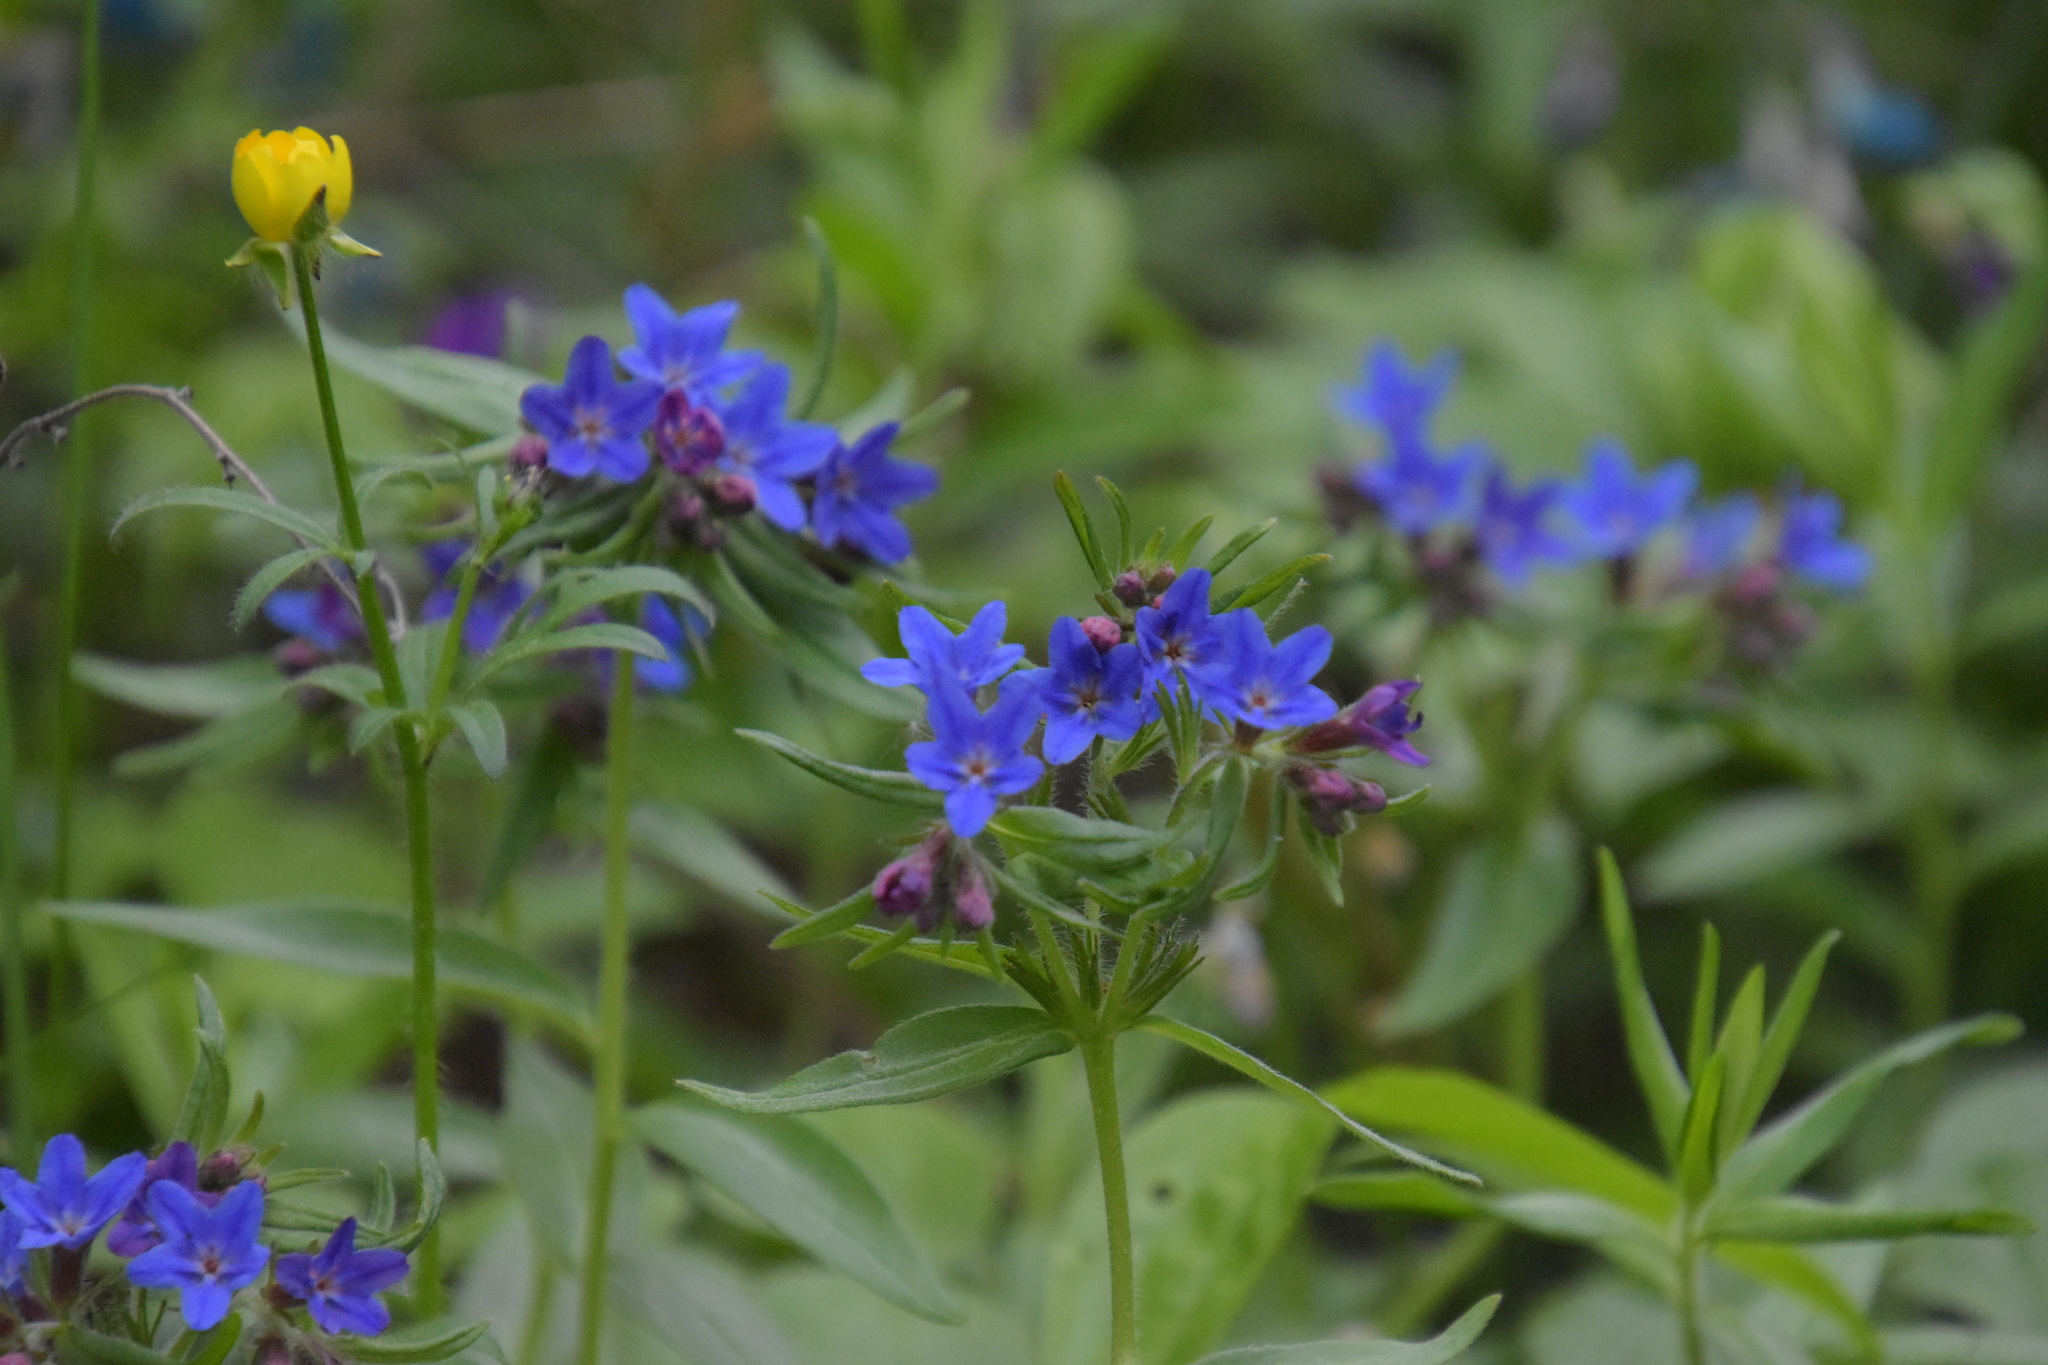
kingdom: Plantae
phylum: Tracheophyta
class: Magnoliopsida
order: Boraginales
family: Boraginaceae
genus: Aegonychon
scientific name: Aegonychon purpurocaeruleum
